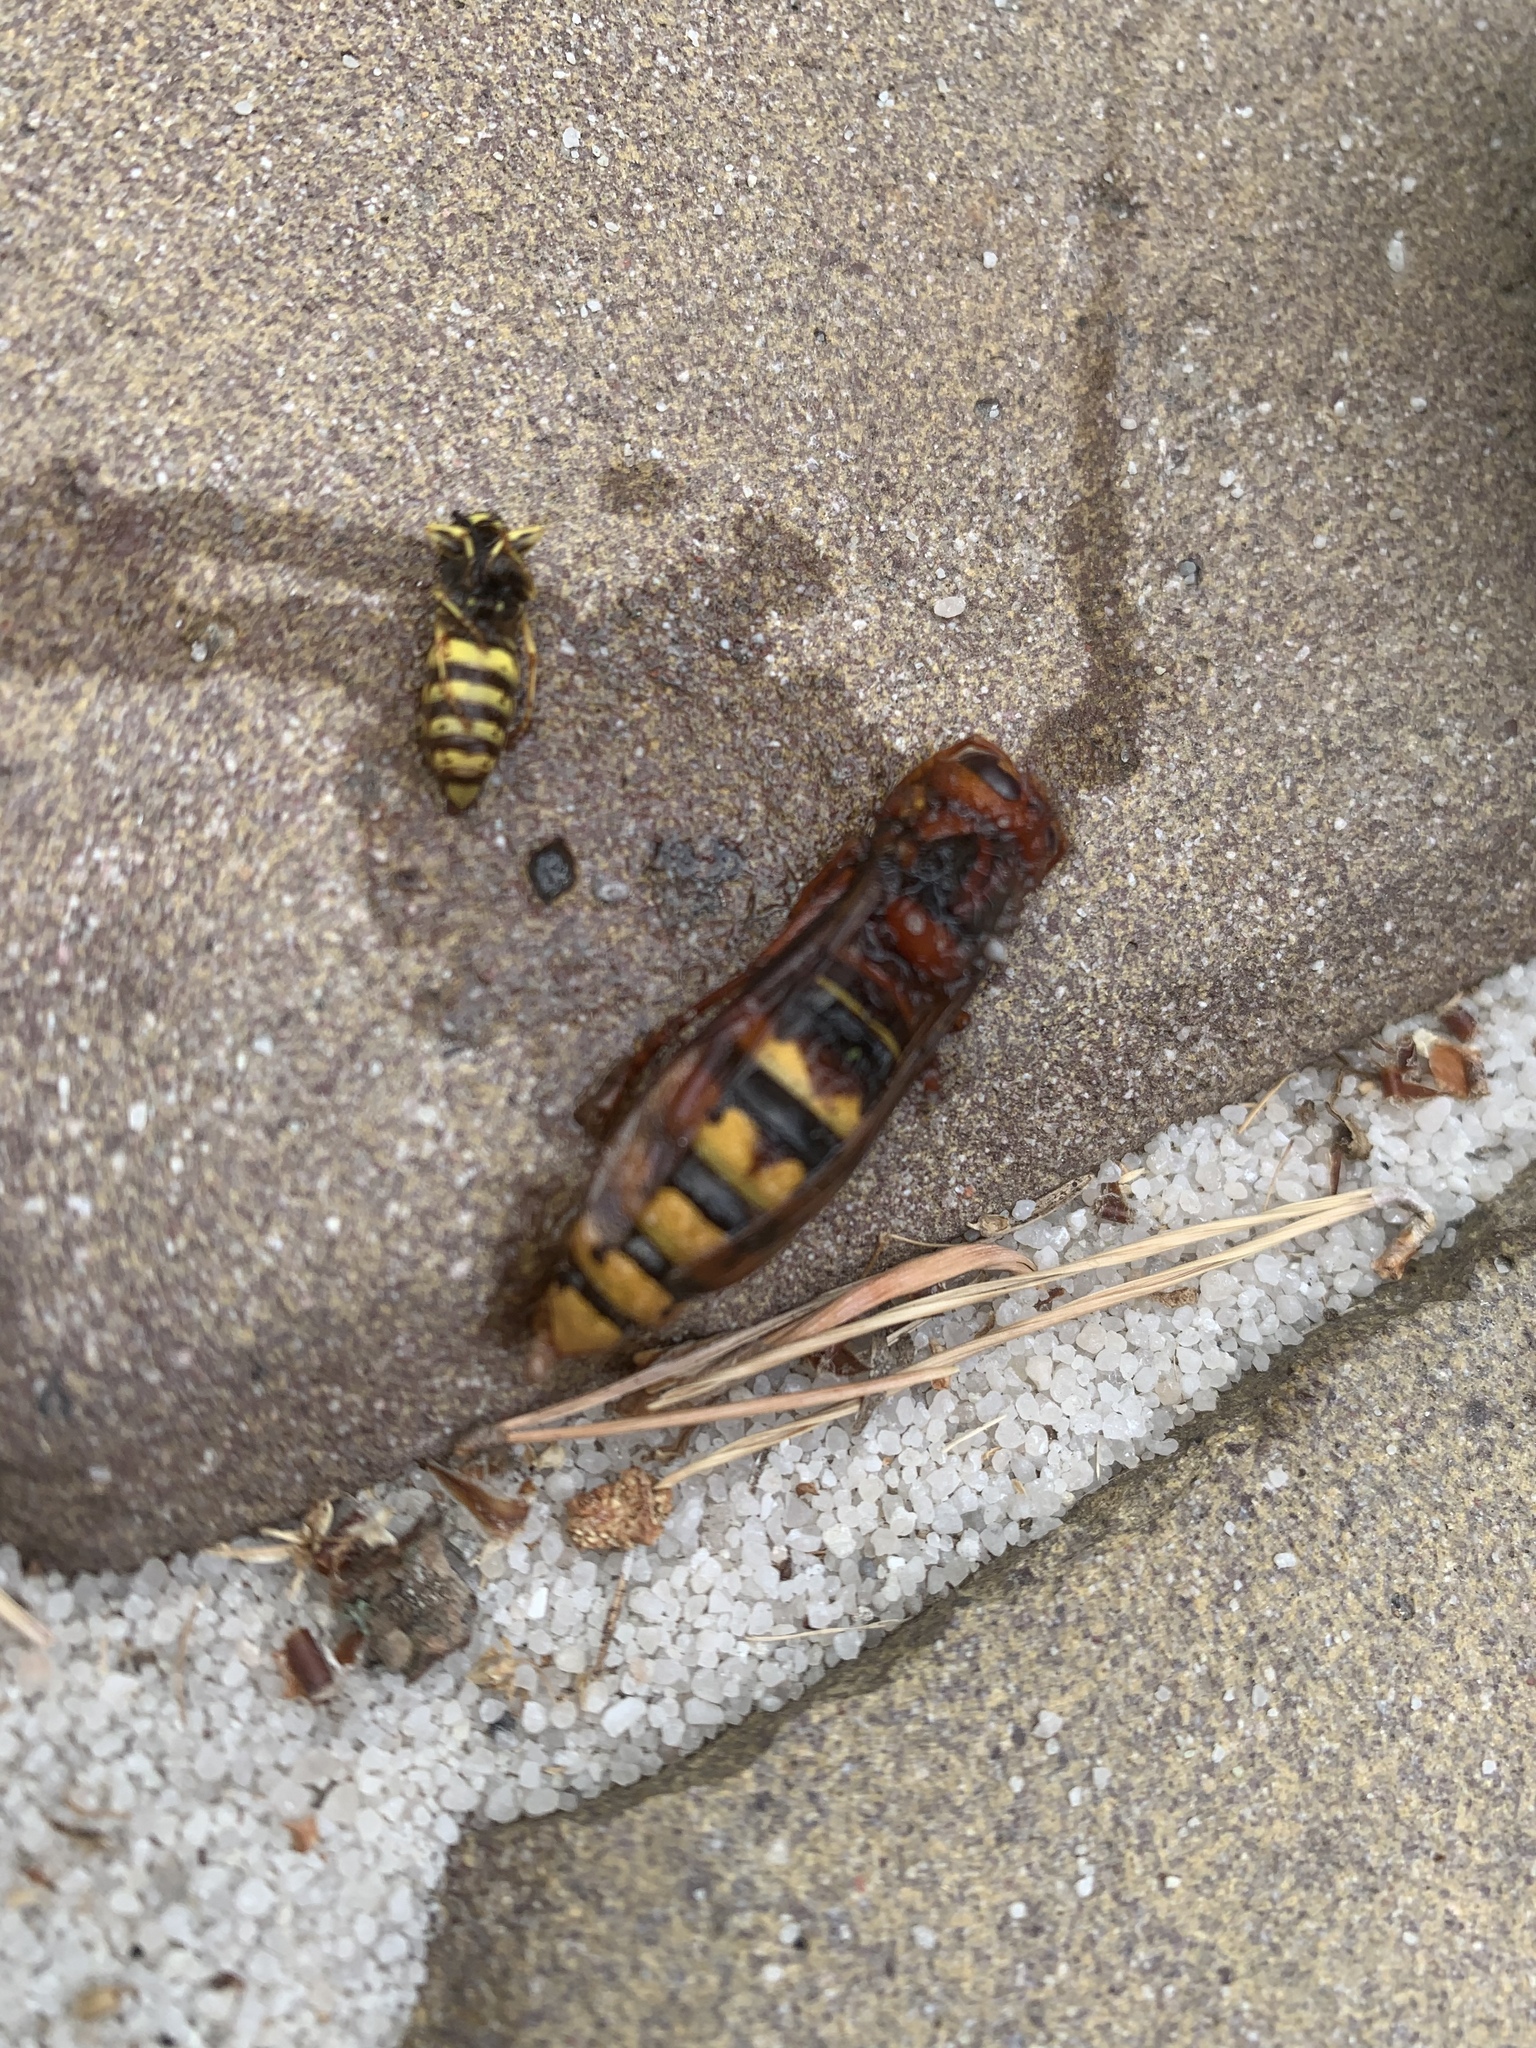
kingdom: Animalia
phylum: Arthropoda
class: Insecta
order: Hymenoptera
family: Vespidae
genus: Vespa
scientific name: Vespa crabro
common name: Hornet
